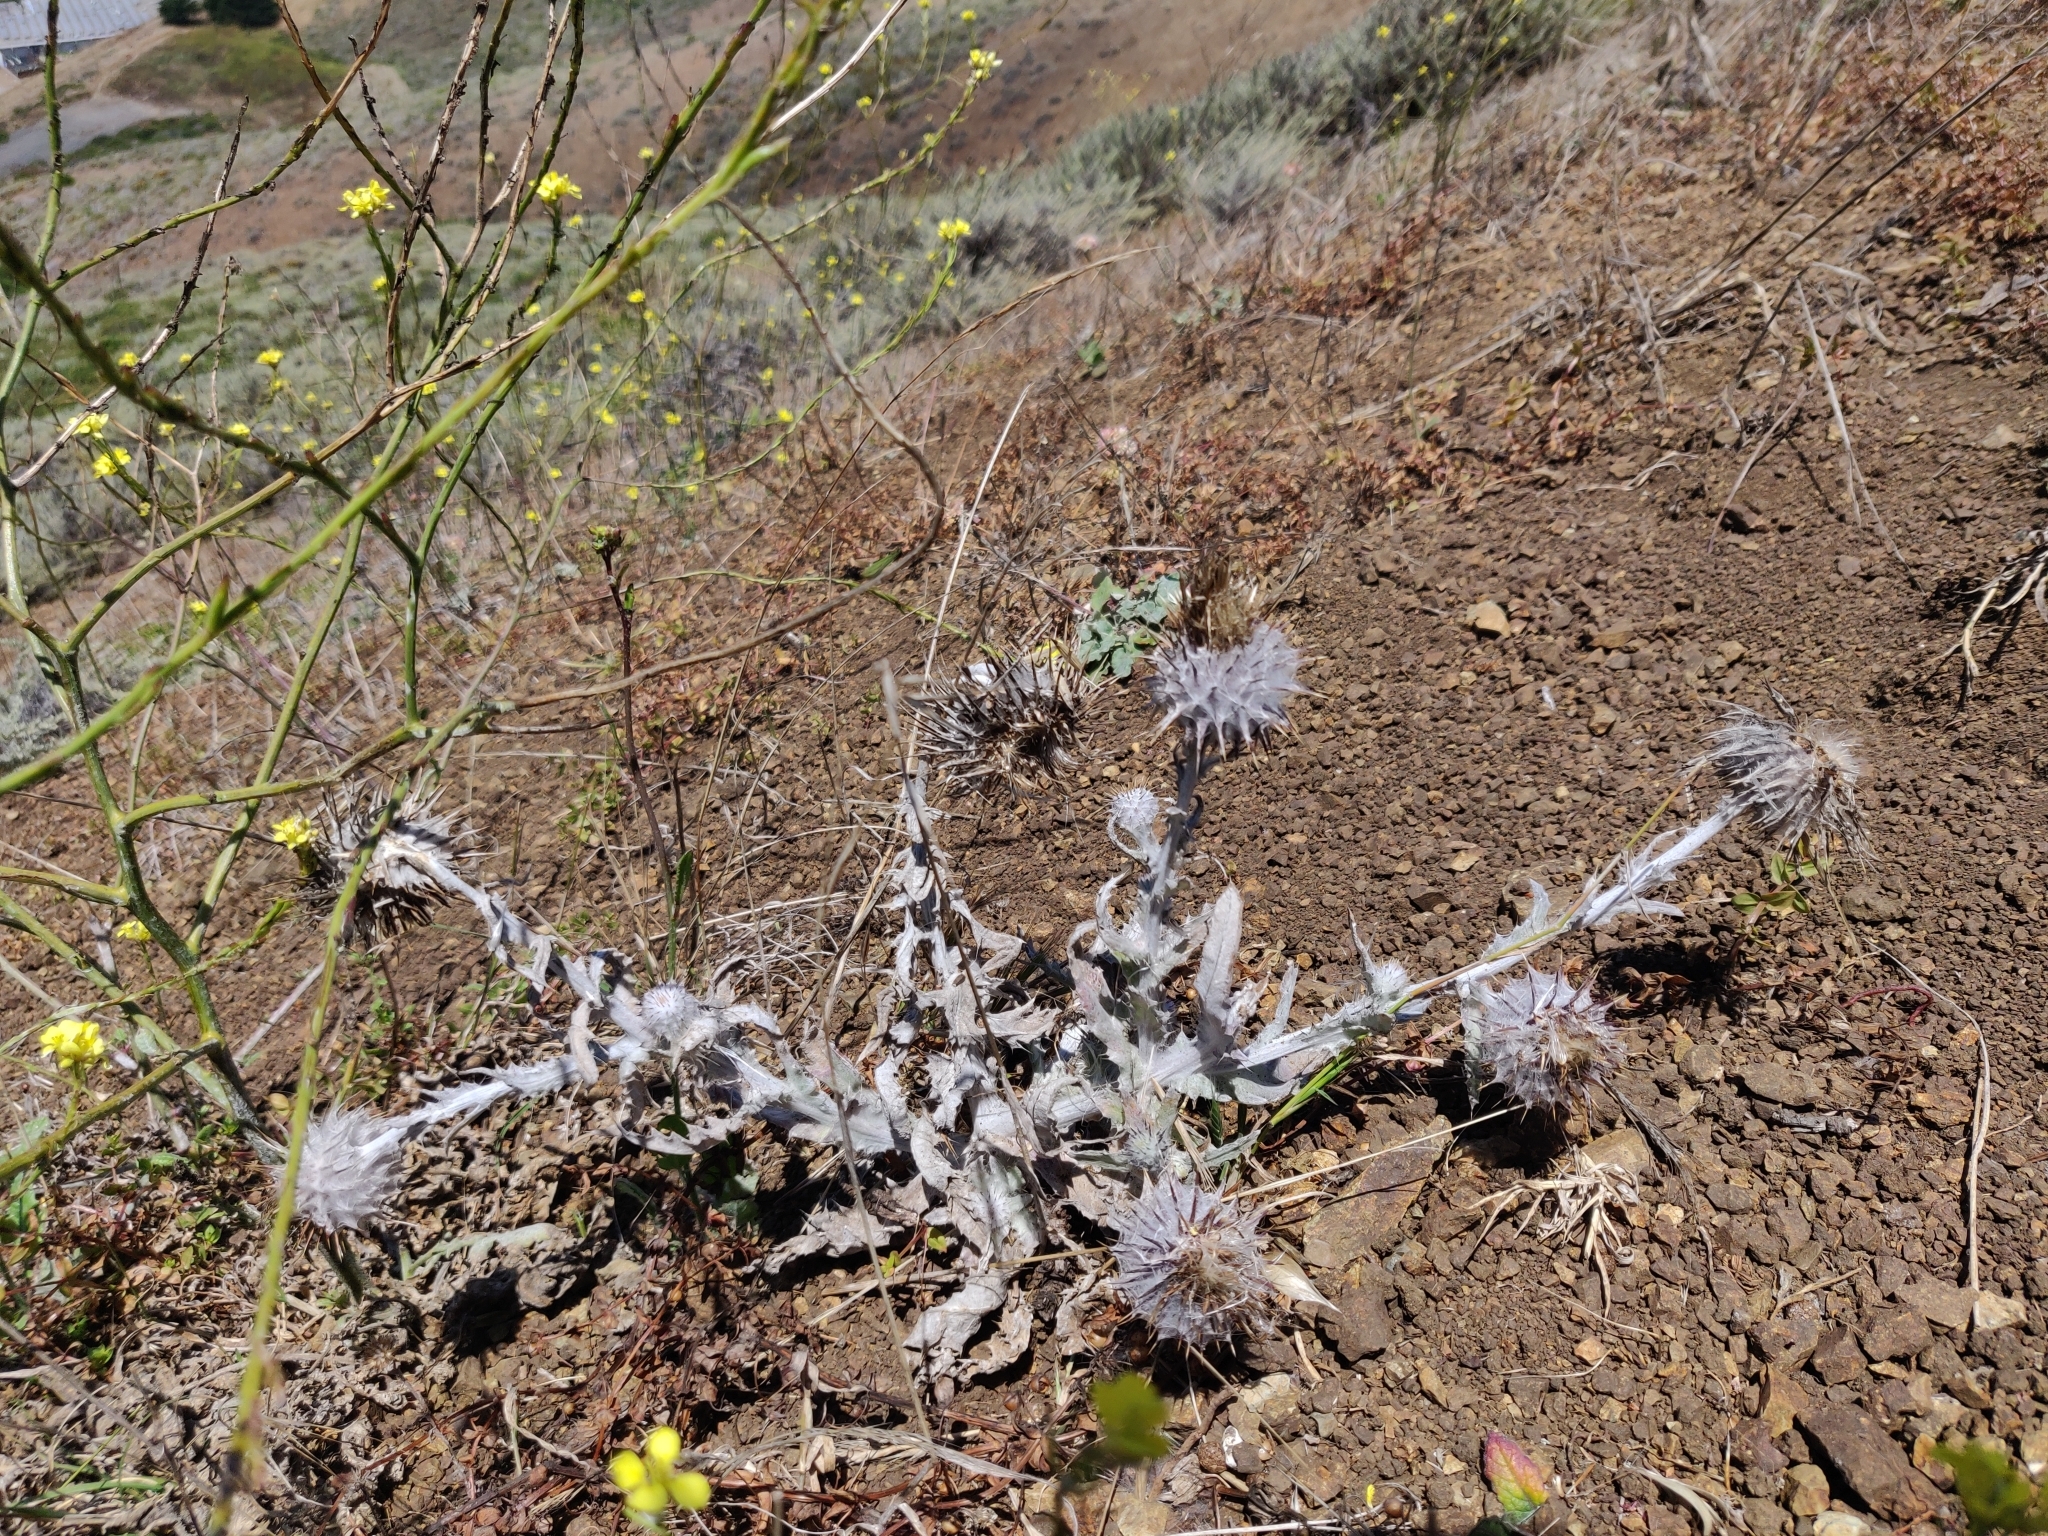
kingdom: Plantae
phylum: Tracheophyta
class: Magnoliopsida
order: Asterales
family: Asteraceae
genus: Cirsium
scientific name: Cirsium occidentale
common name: Western thistle
